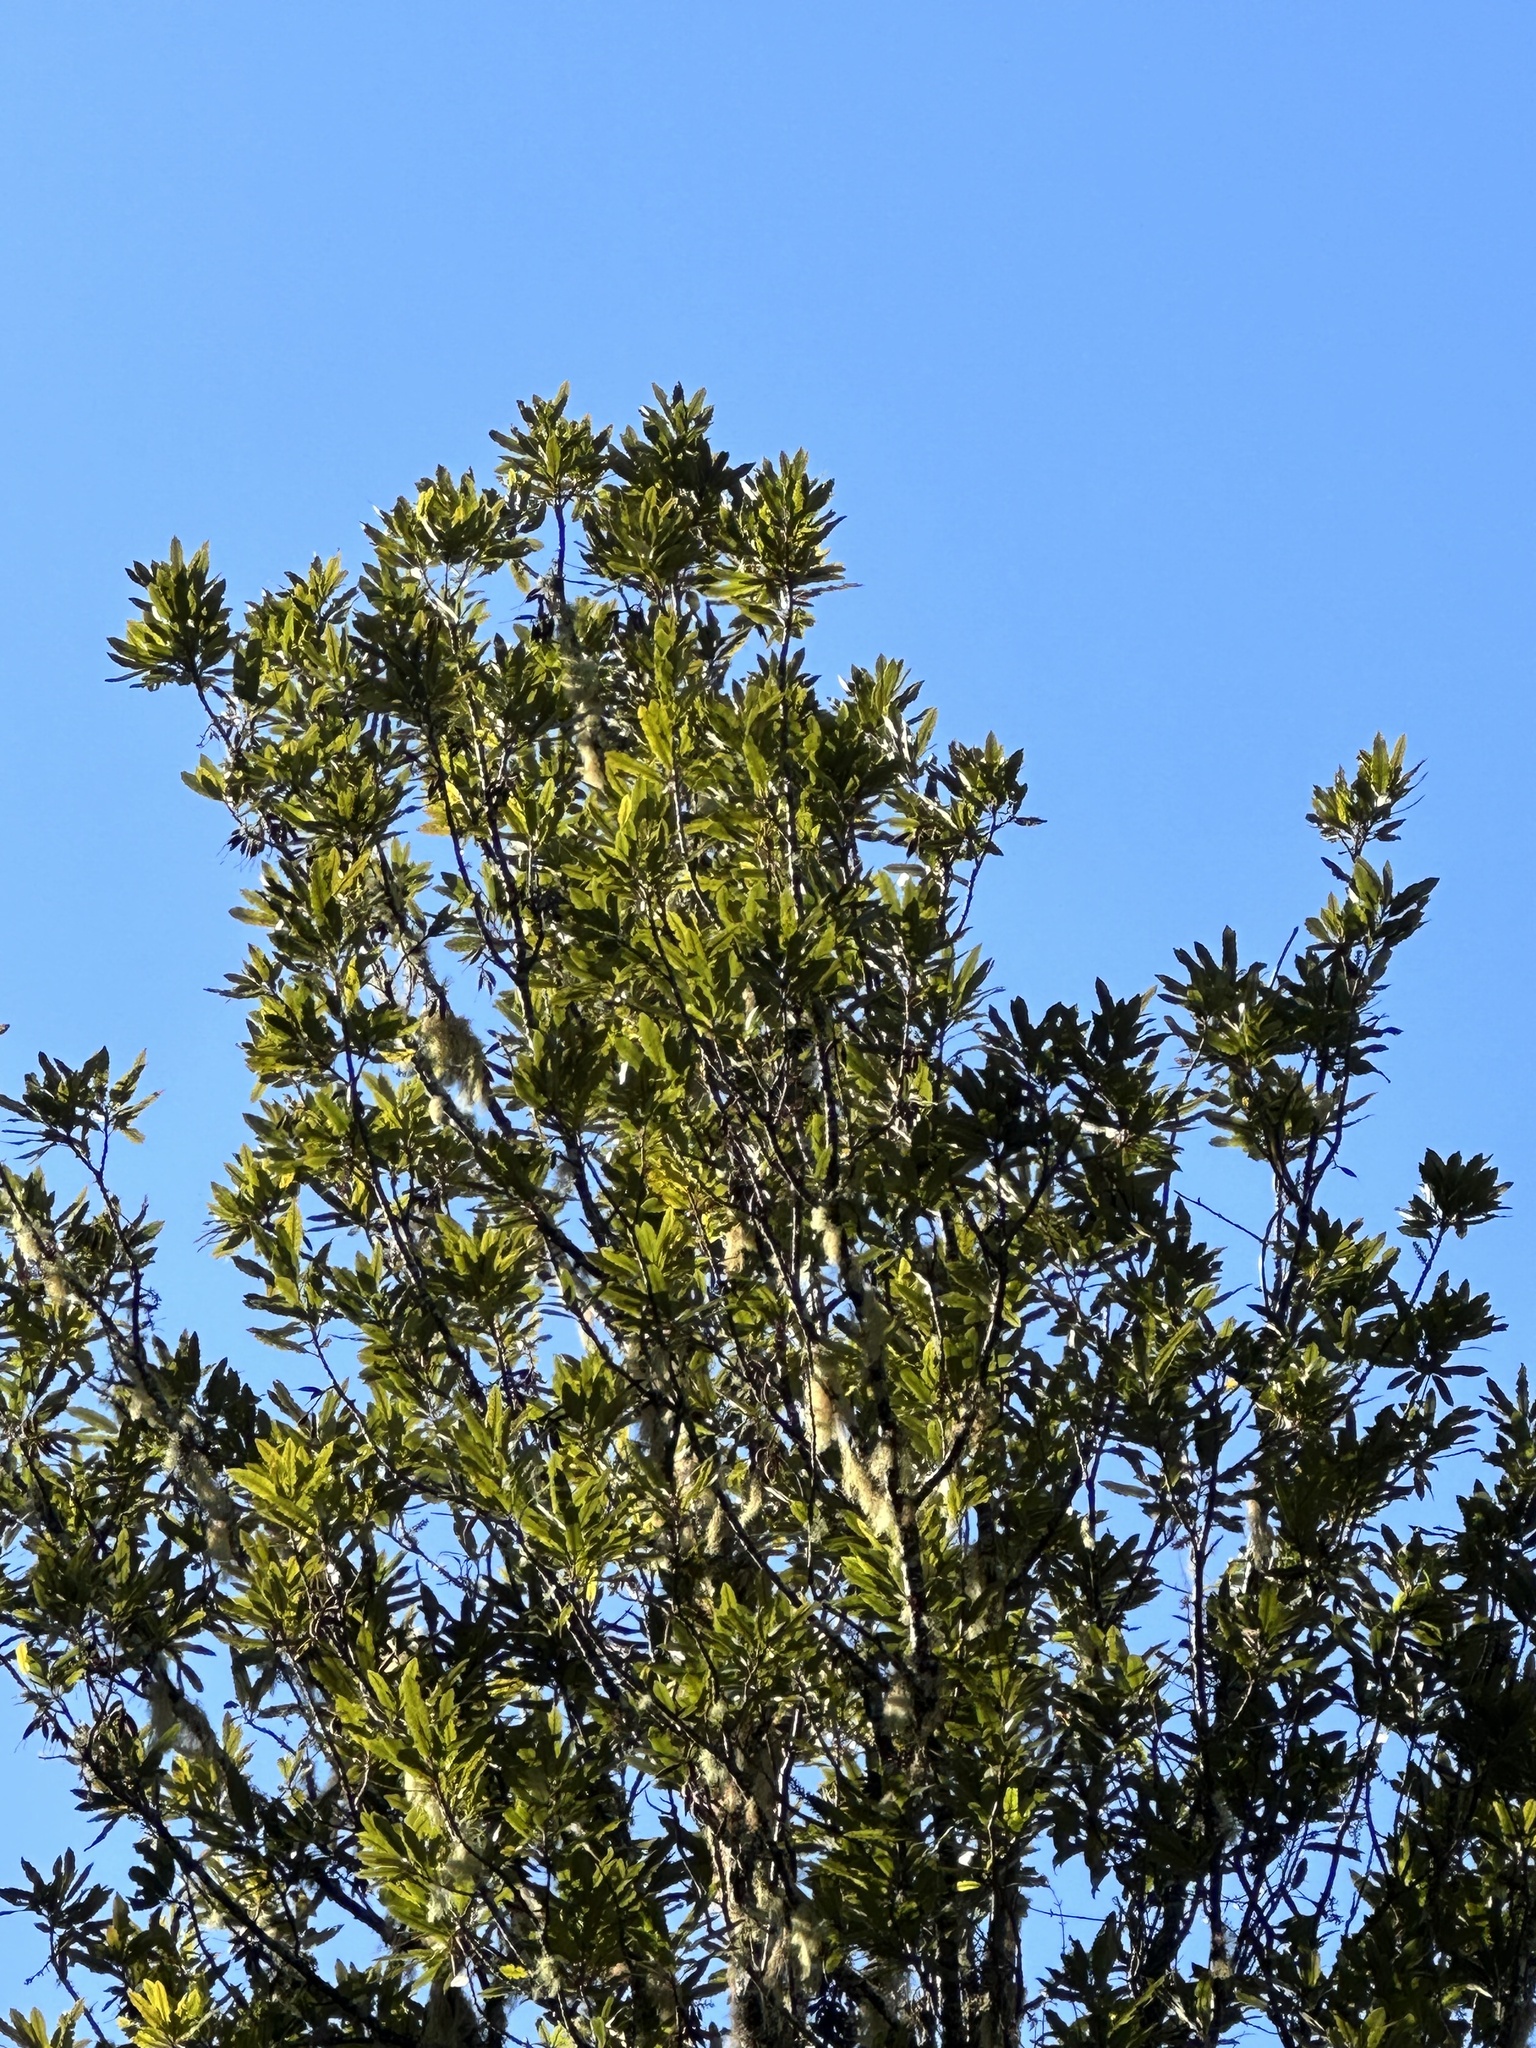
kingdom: Plantae
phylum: Tracheophyta
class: Magnoliopsida
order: Proteales
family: Proteaceae
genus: Knightia
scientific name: Knightia excelsa
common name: New zealand-honeysuckle
